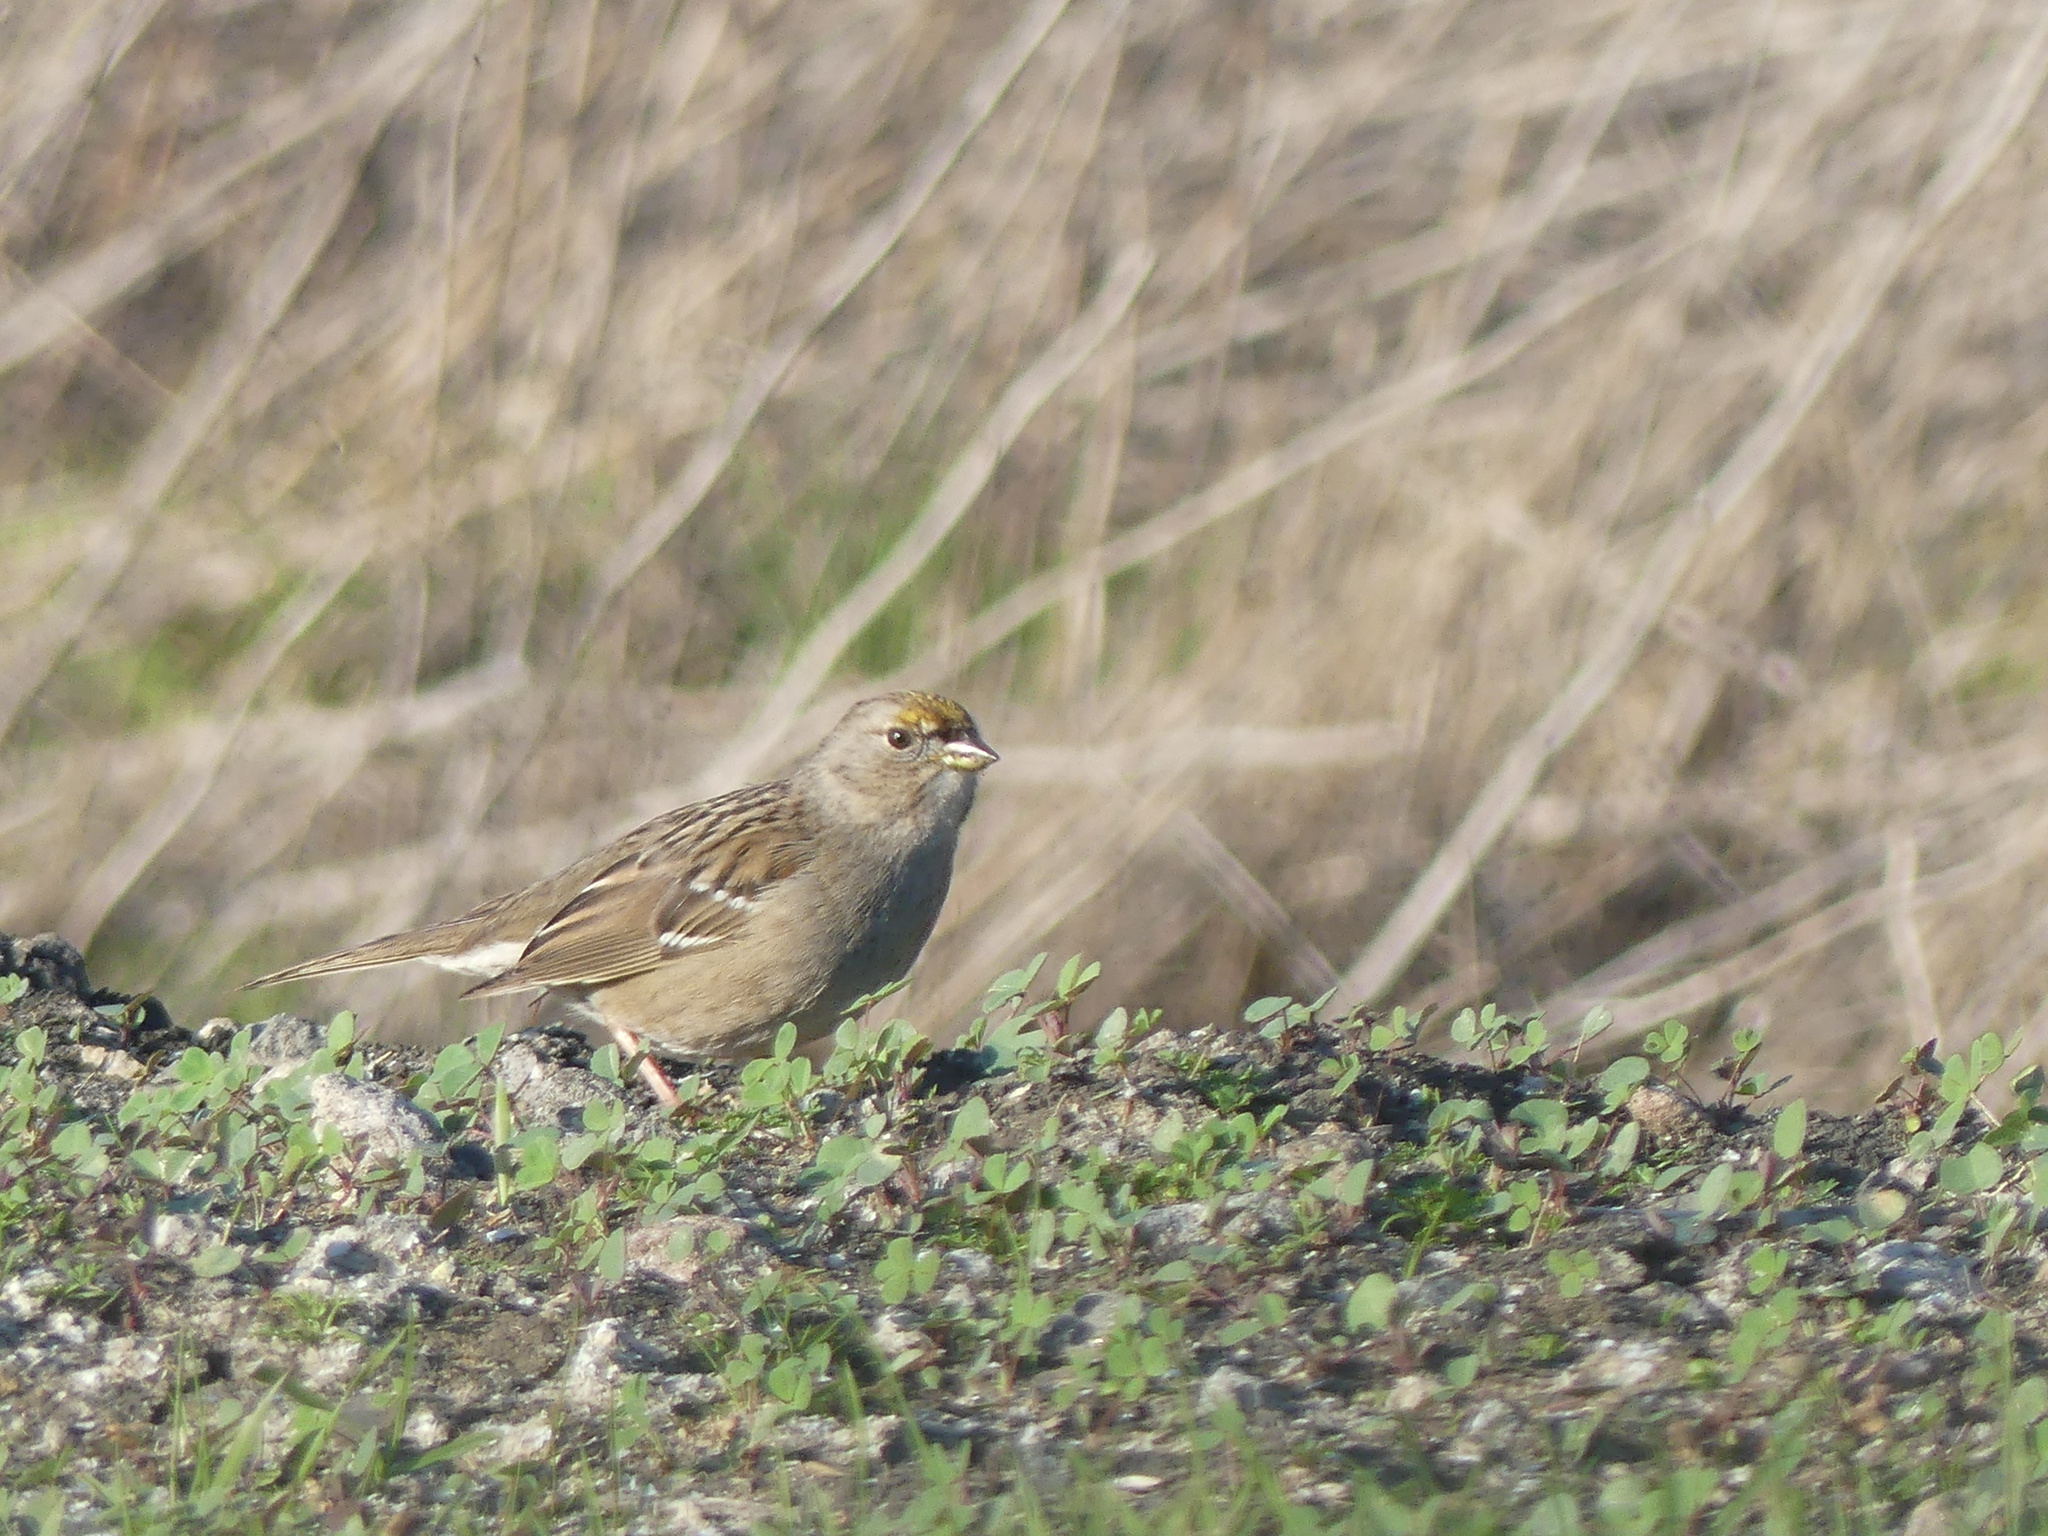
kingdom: Animalia
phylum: Chordata
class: Aves
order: Passeriformes
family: Passerellidae
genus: Zonotrichia
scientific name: Zonotrichia atricapilla
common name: Golden-crowned sparrow
